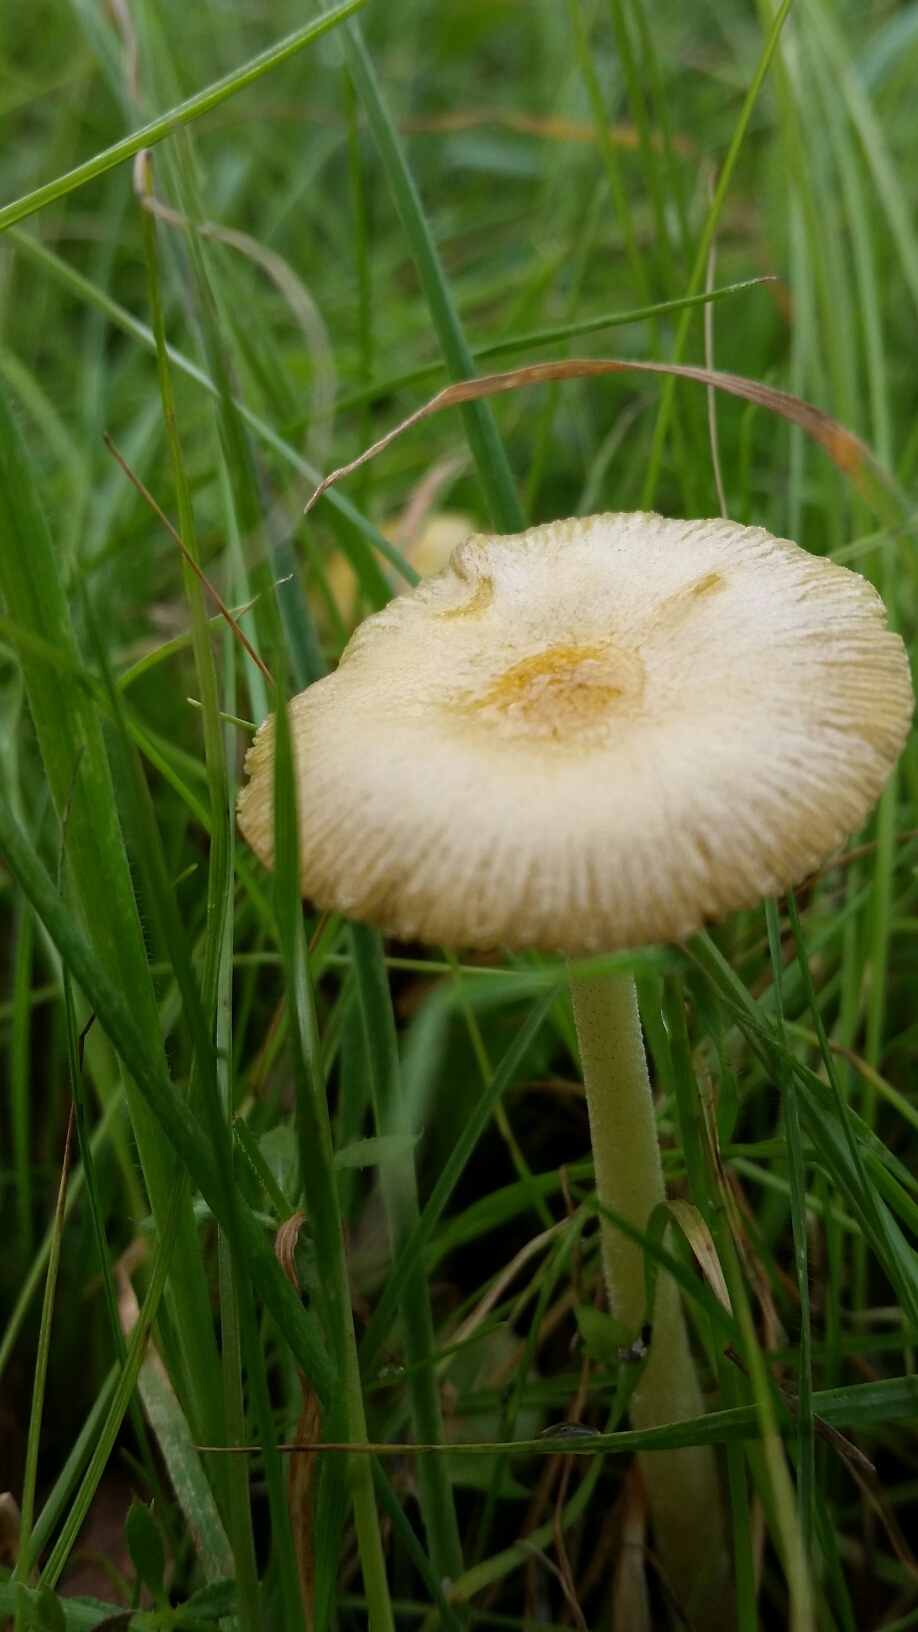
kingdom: Fungi
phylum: Basidiomycota
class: Agaricomycetes
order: Agaricales
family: Bolbitiaceae
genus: Bolbitius
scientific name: Bolbitius titubans
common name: Yellow fieldcap
